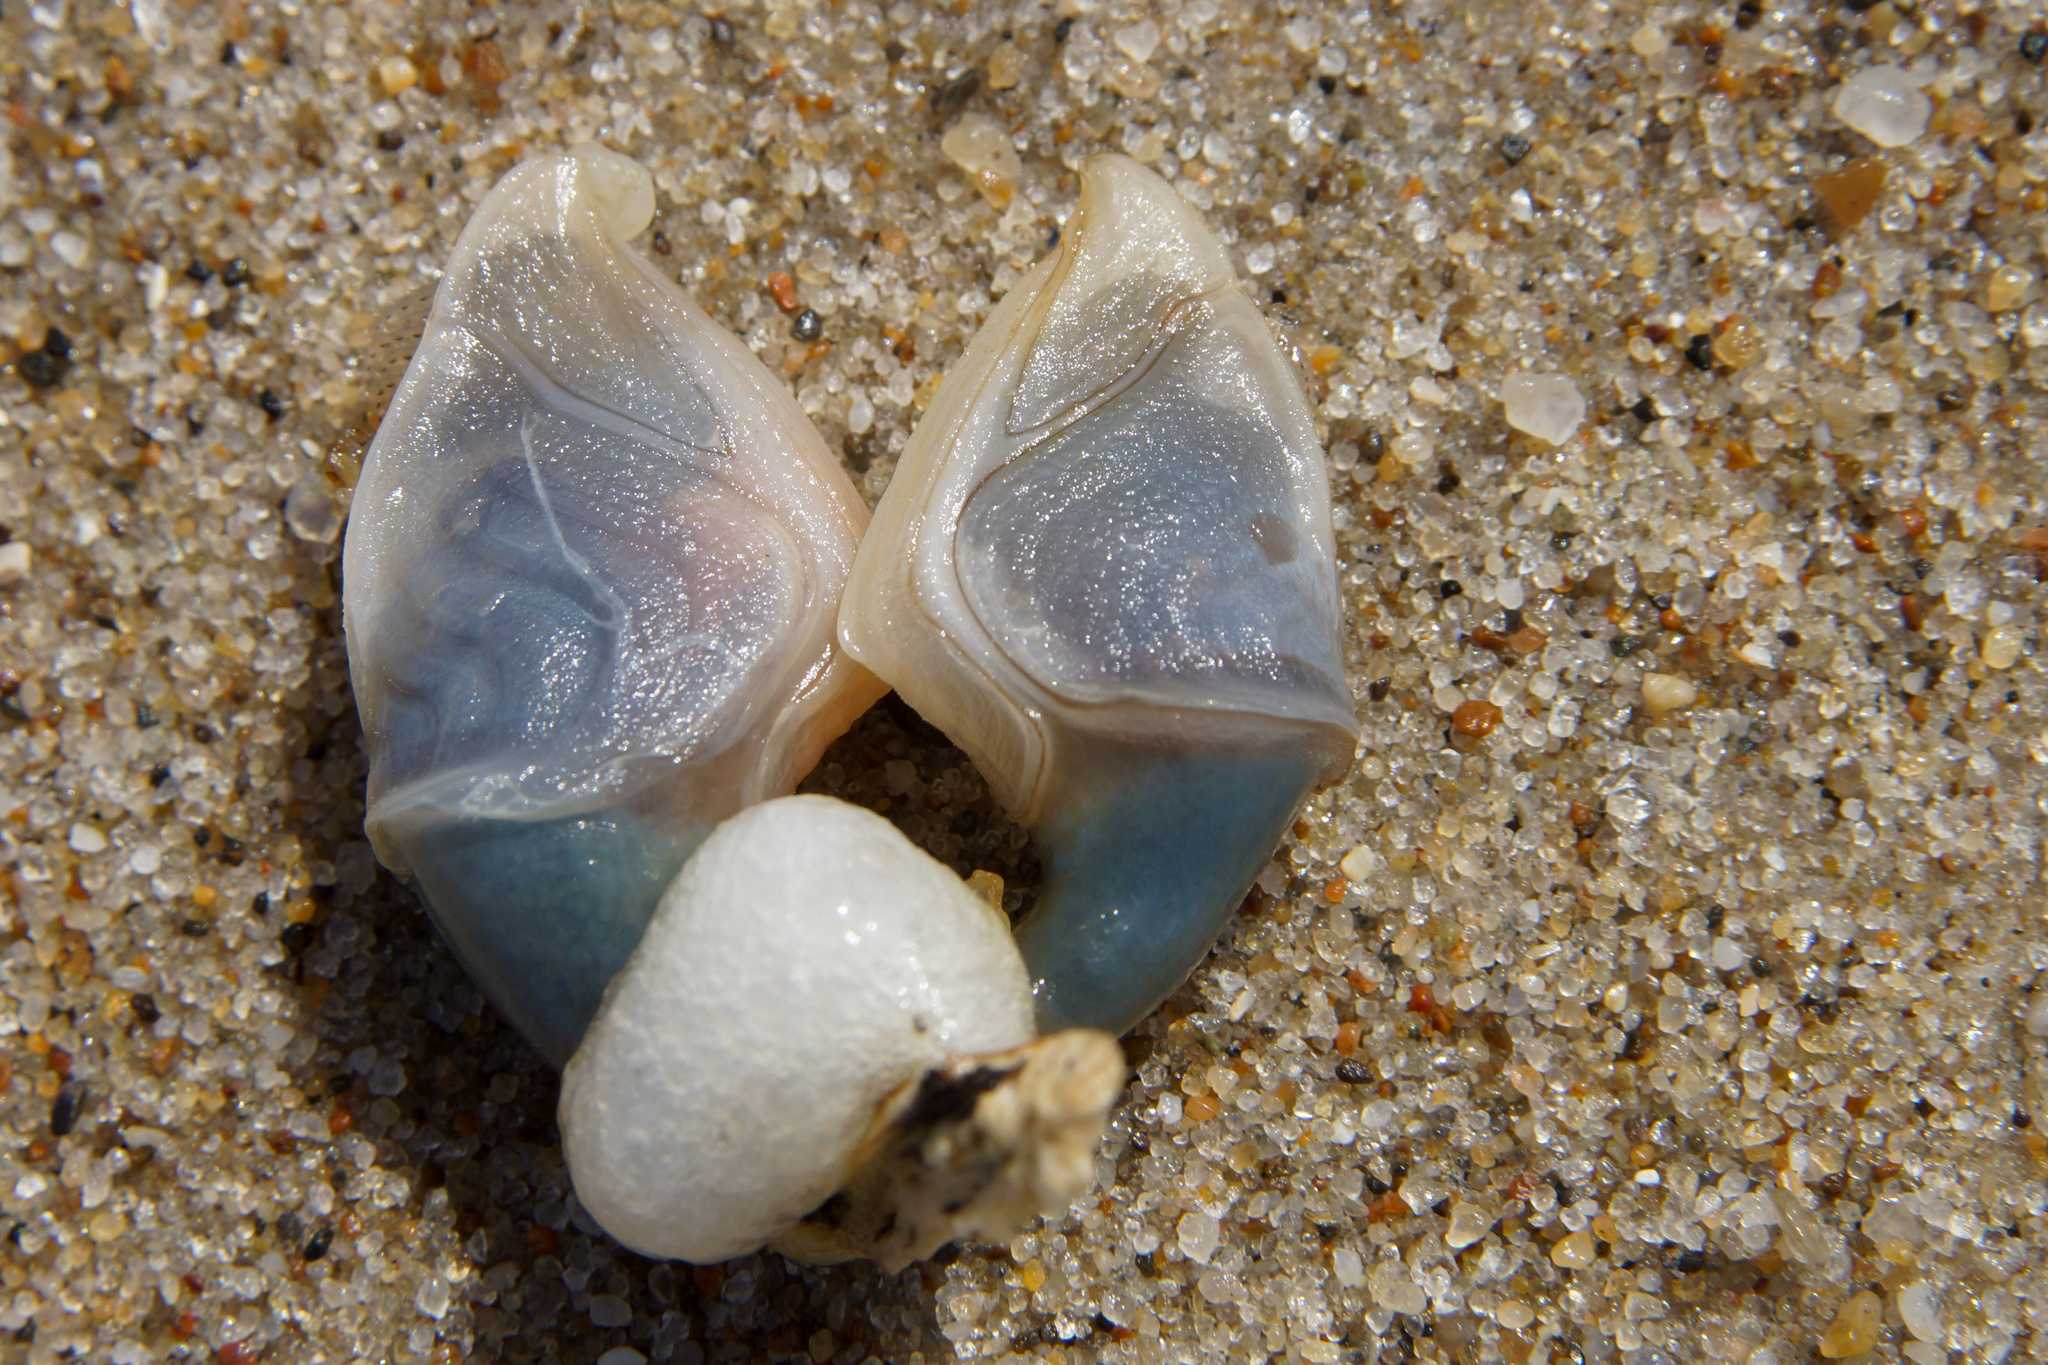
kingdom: Animalia
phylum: Arthropoda
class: Maxillopoda
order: Pedunculata
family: Lepadidae
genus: Dosima
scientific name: Dosima fascicularis
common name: Buoy barnacle
